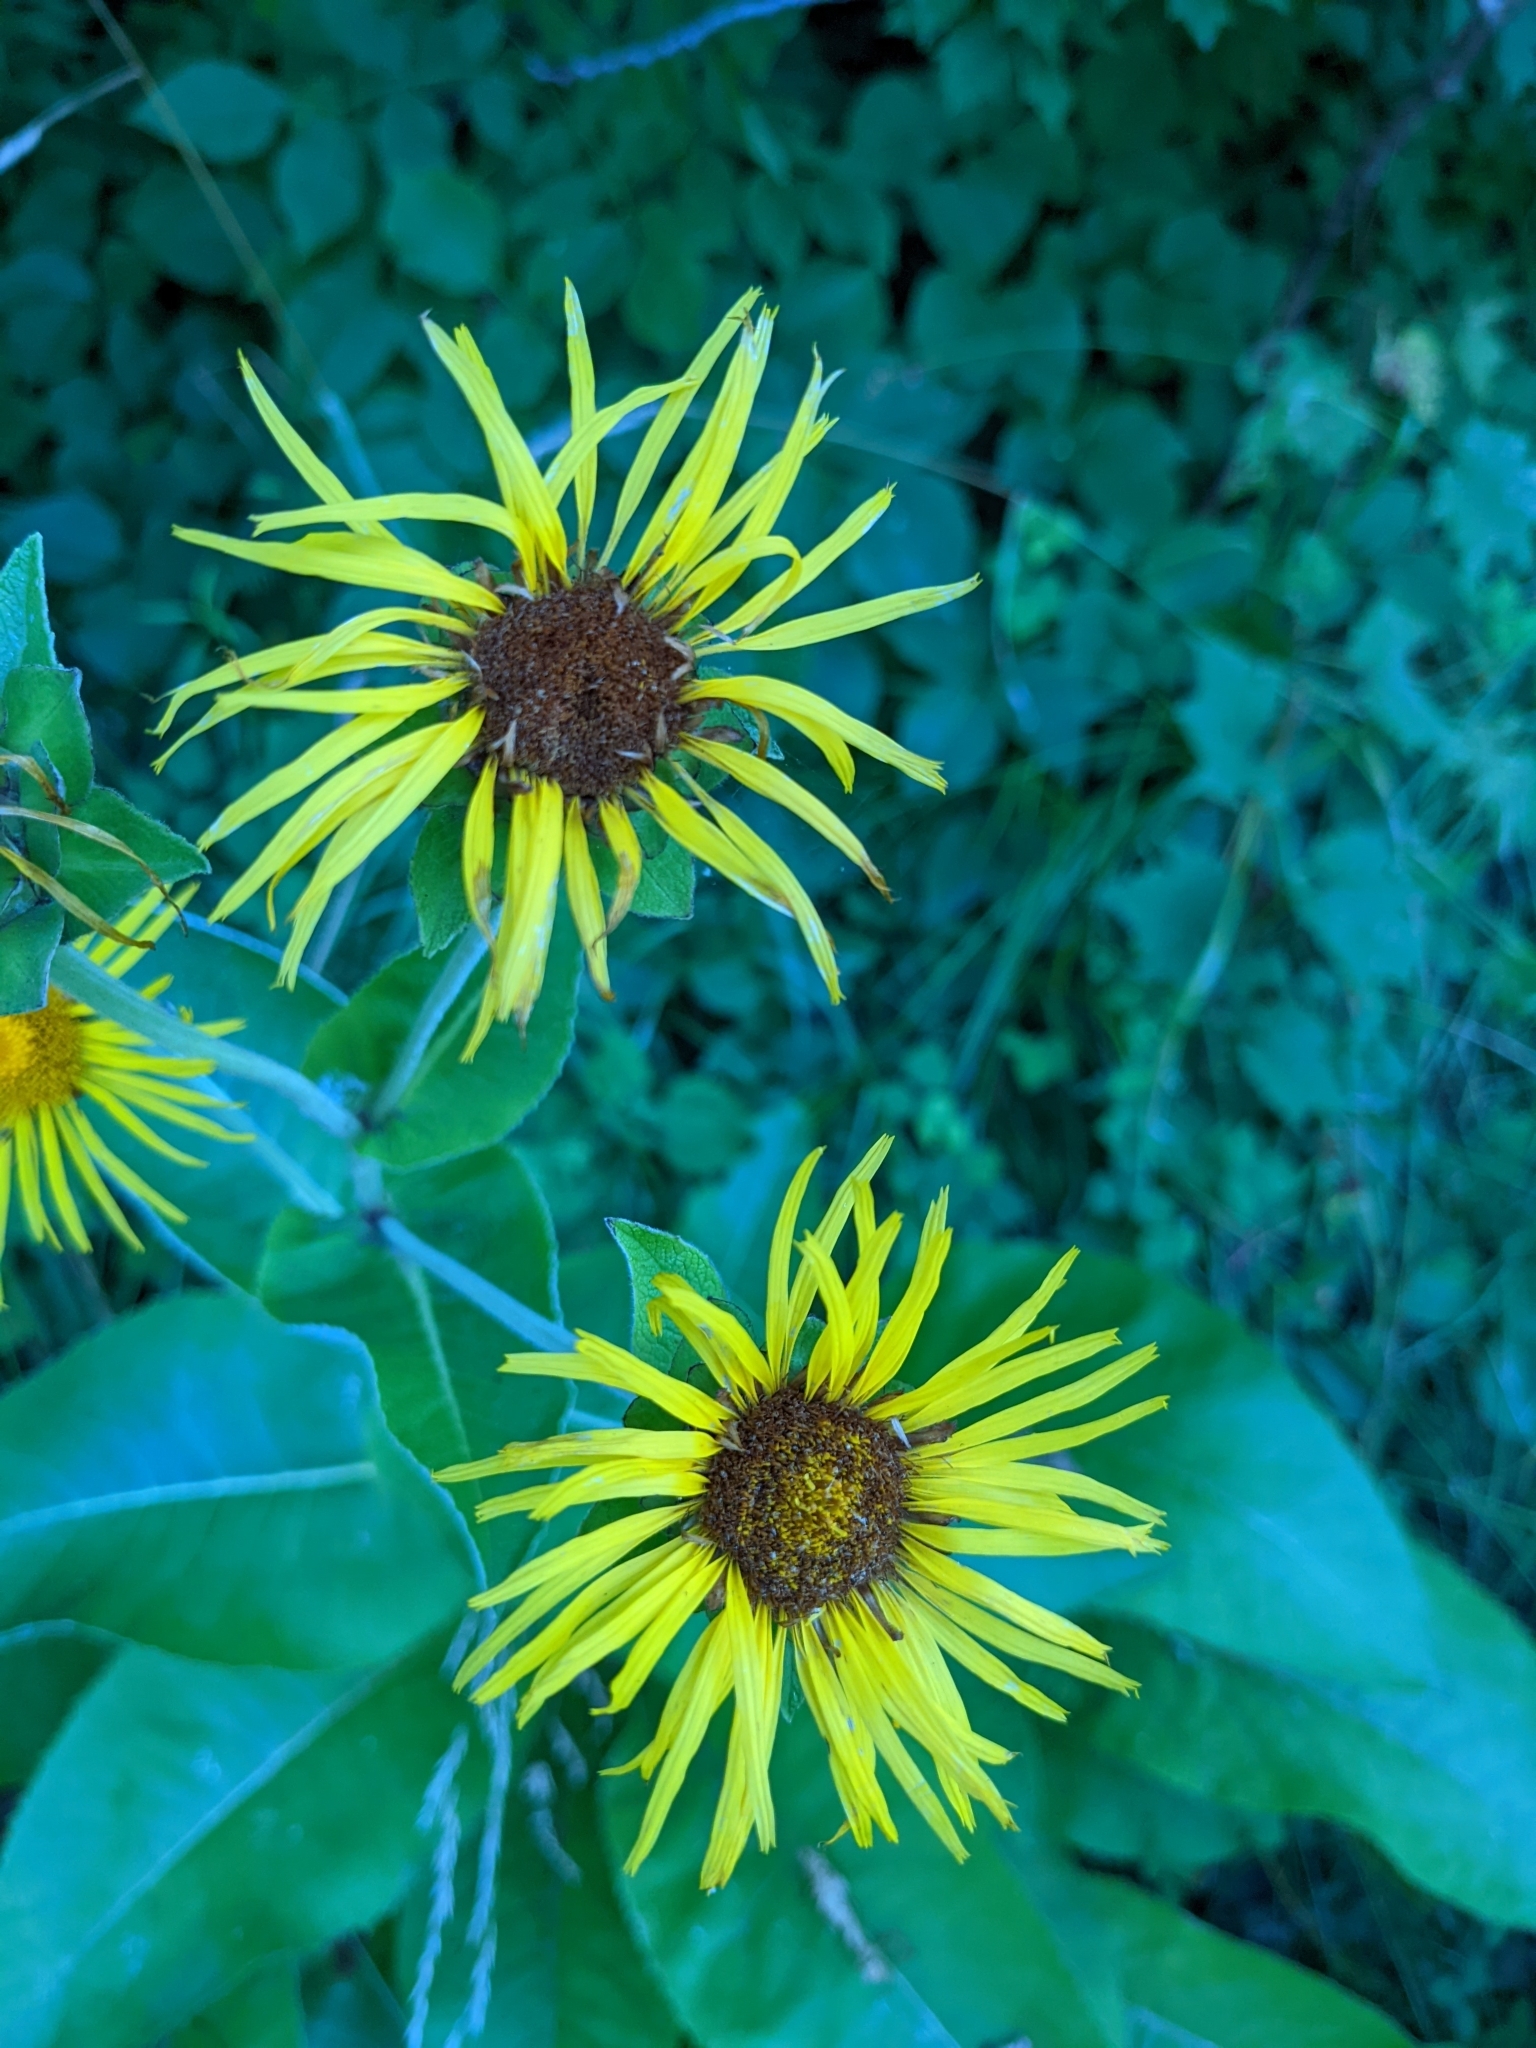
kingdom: Plantae
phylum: Tracheophyta
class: Magnoliopsida
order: Asterales
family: Asteraceae
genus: Inula
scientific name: Inula helenium
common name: Elecampane
